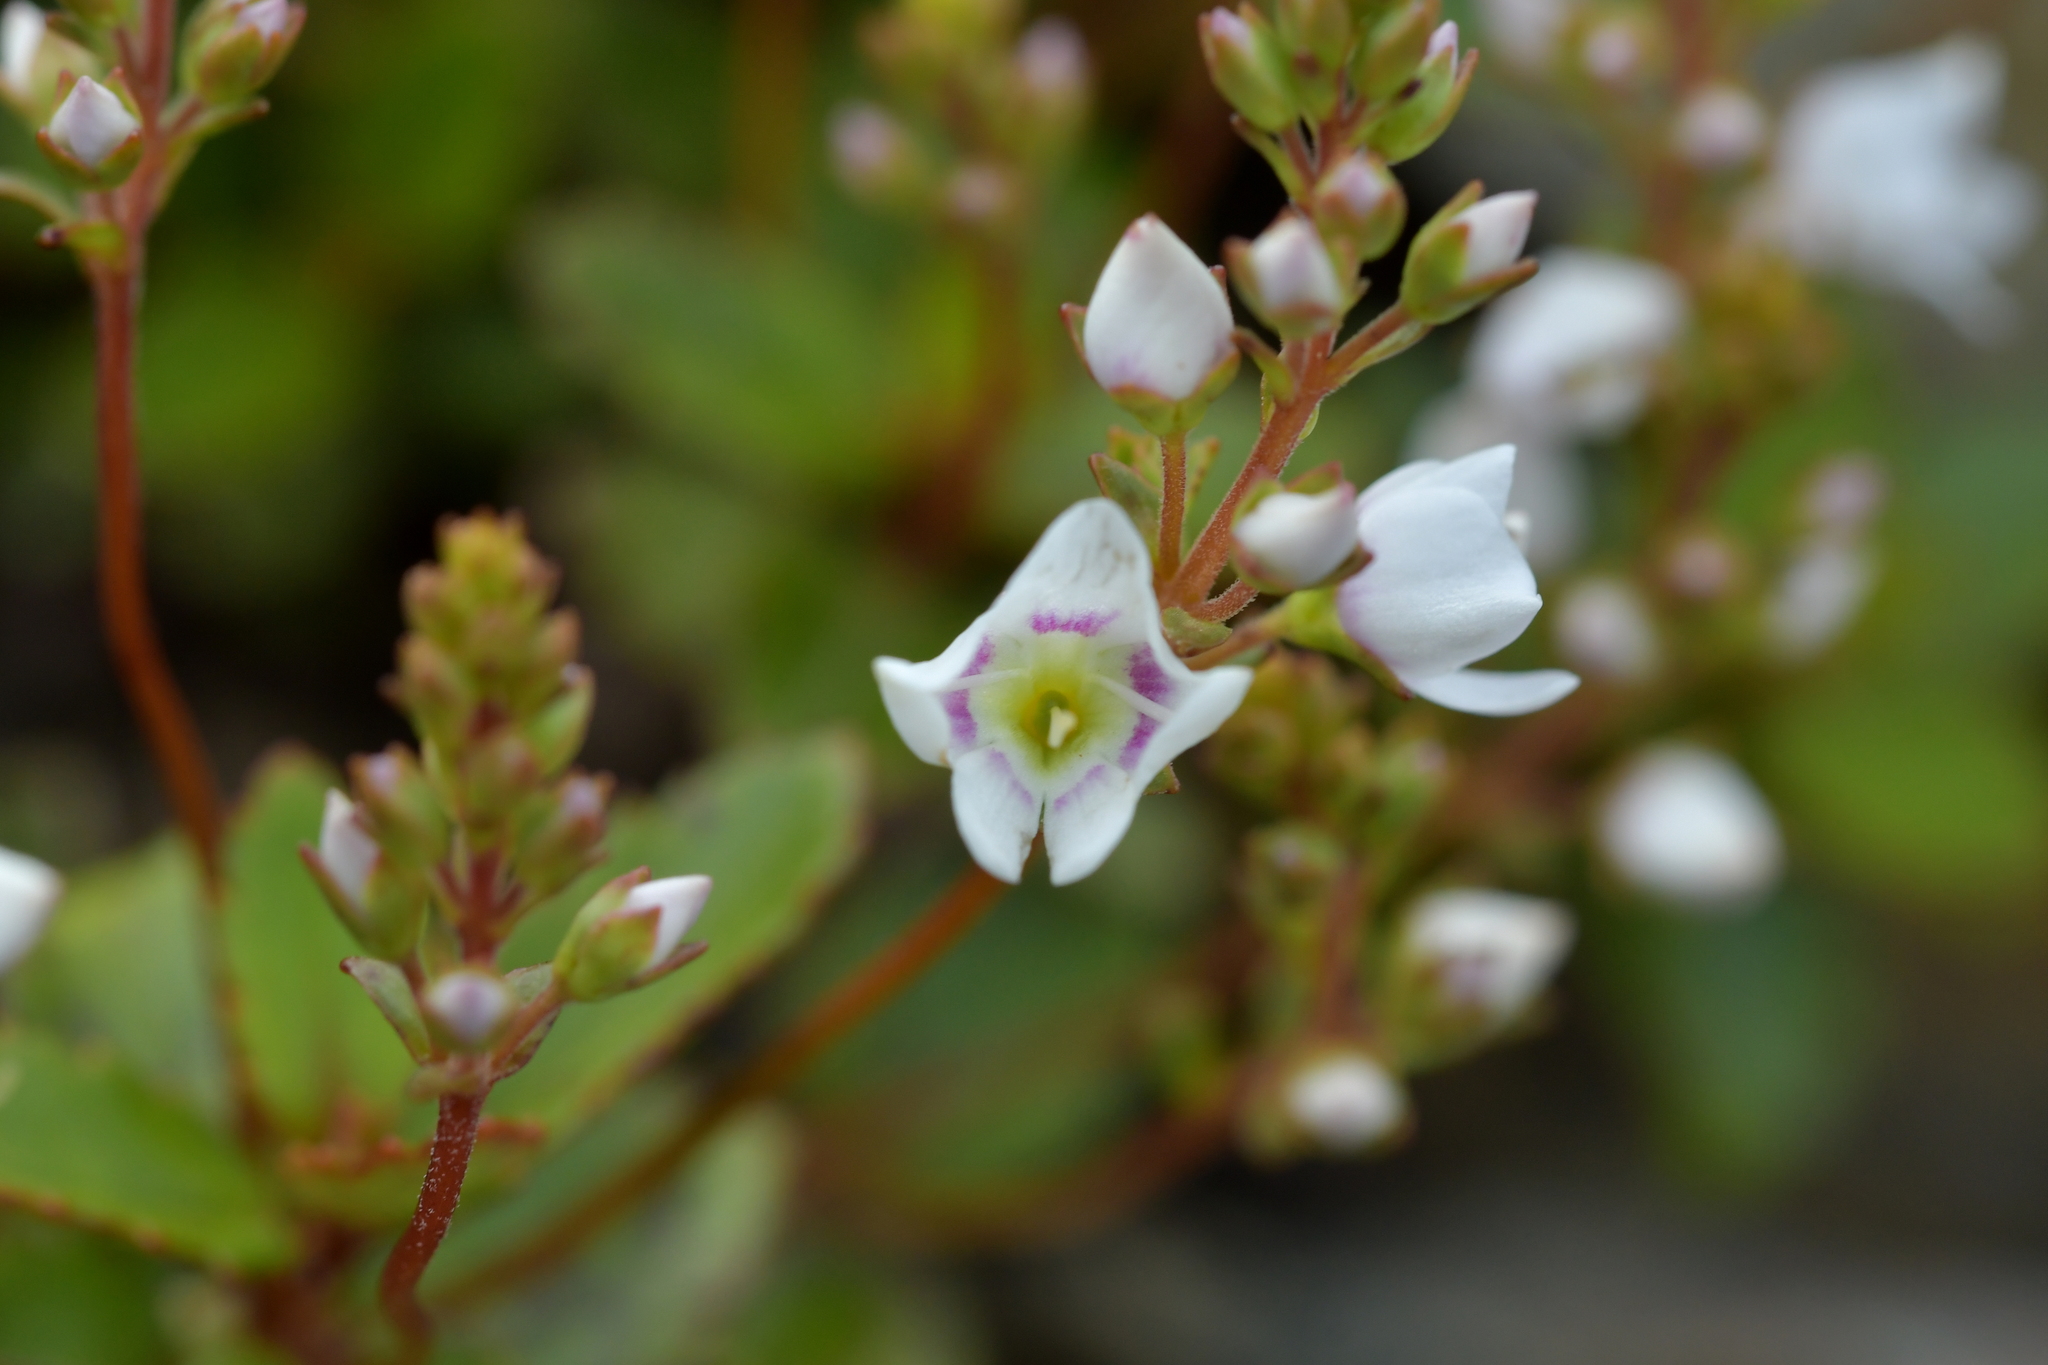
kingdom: Plantae
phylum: Tracheophyta
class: Magnoliopsida
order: Lamiales
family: Plantaginaceae
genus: Veronica
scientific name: Veronica lanceolata
